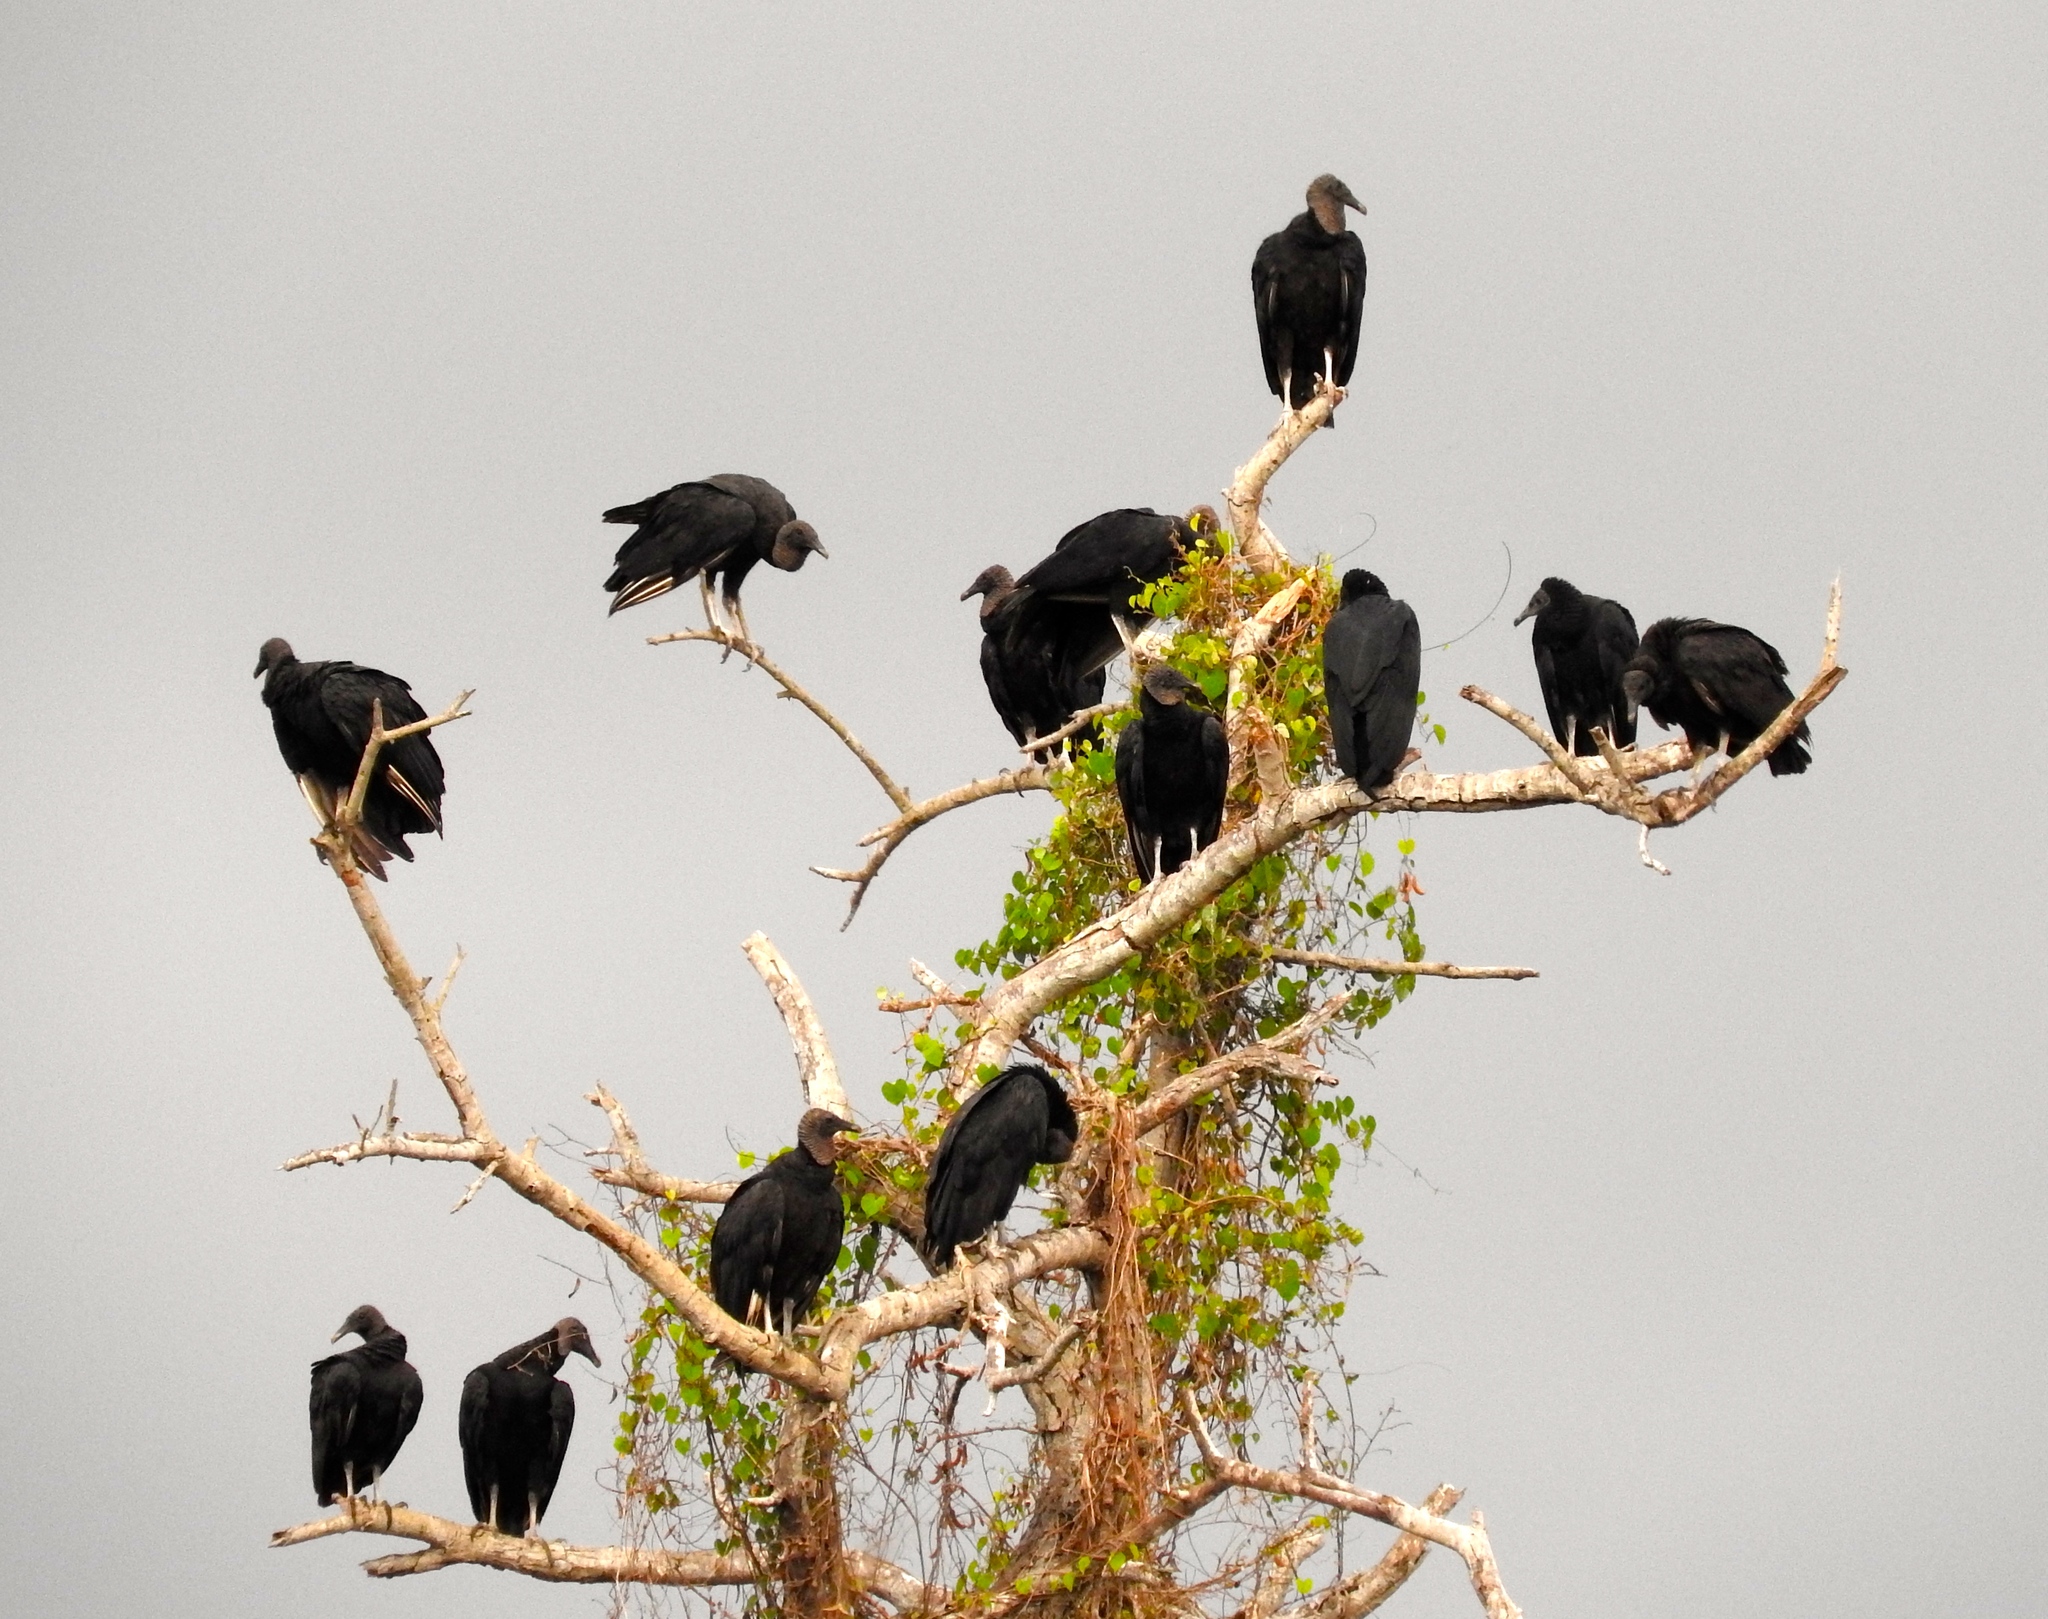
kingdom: Animalia
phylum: Chordata
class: Aves
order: Accipitriformes
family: Cathartidae
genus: Coragyps
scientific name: Coragyps atratus
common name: Black vulture
